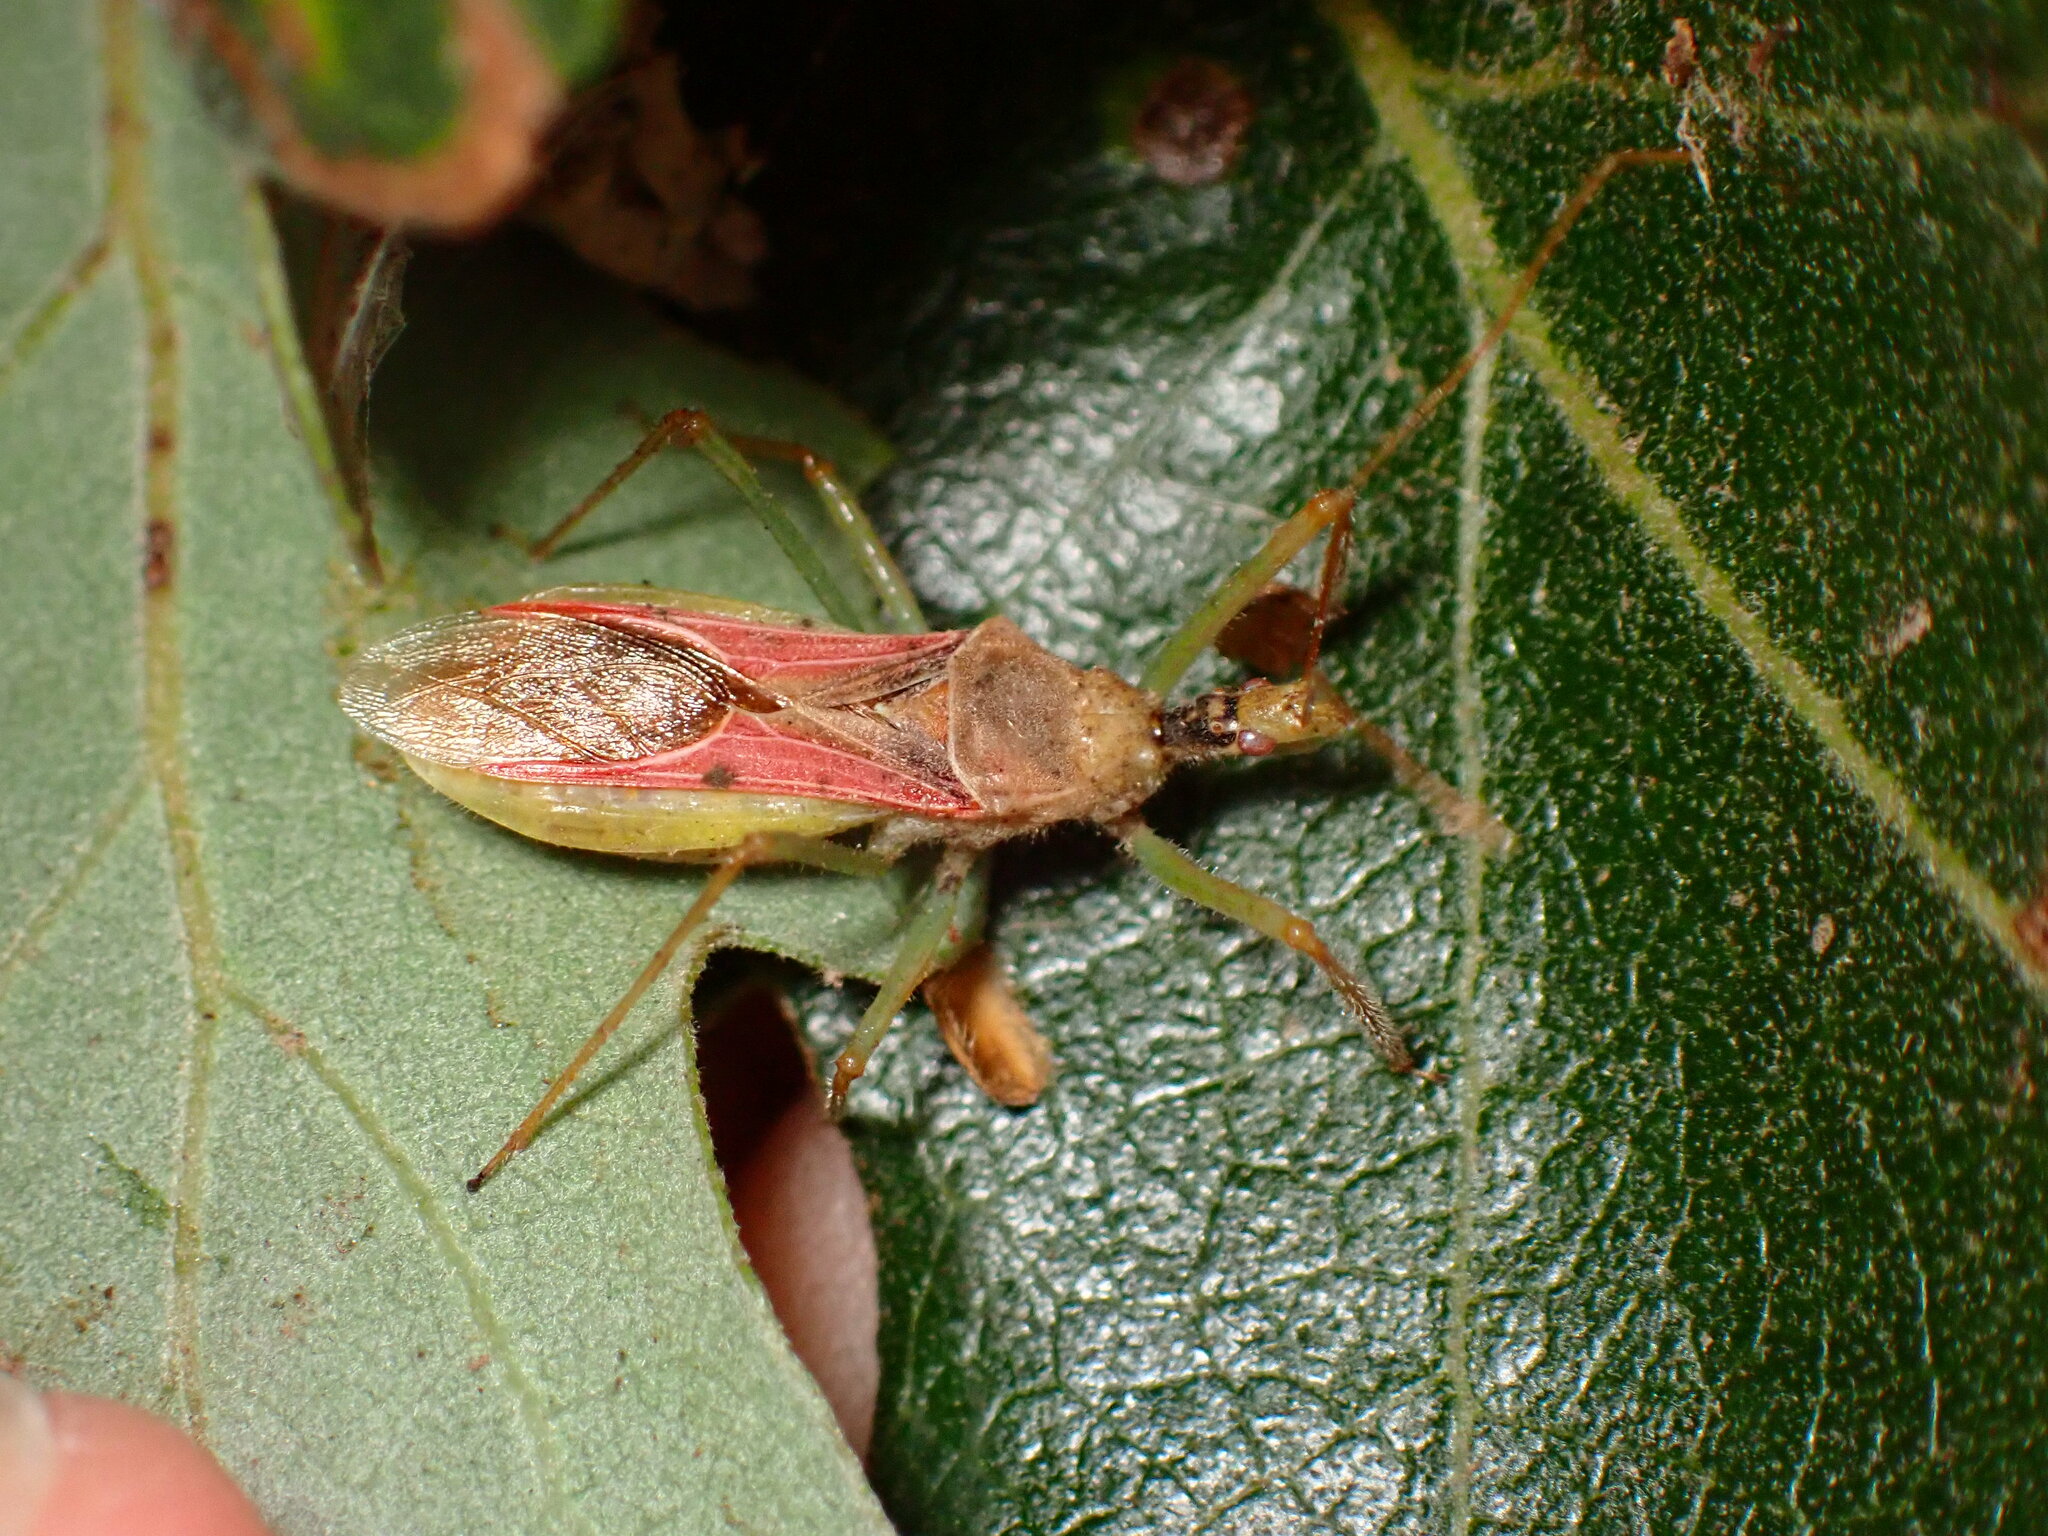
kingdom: Animalia
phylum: Arthropoda
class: Insecta
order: Hemiptera
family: Reduviidae
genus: Zelus
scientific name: Zelus renardii
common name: Assassin bug
